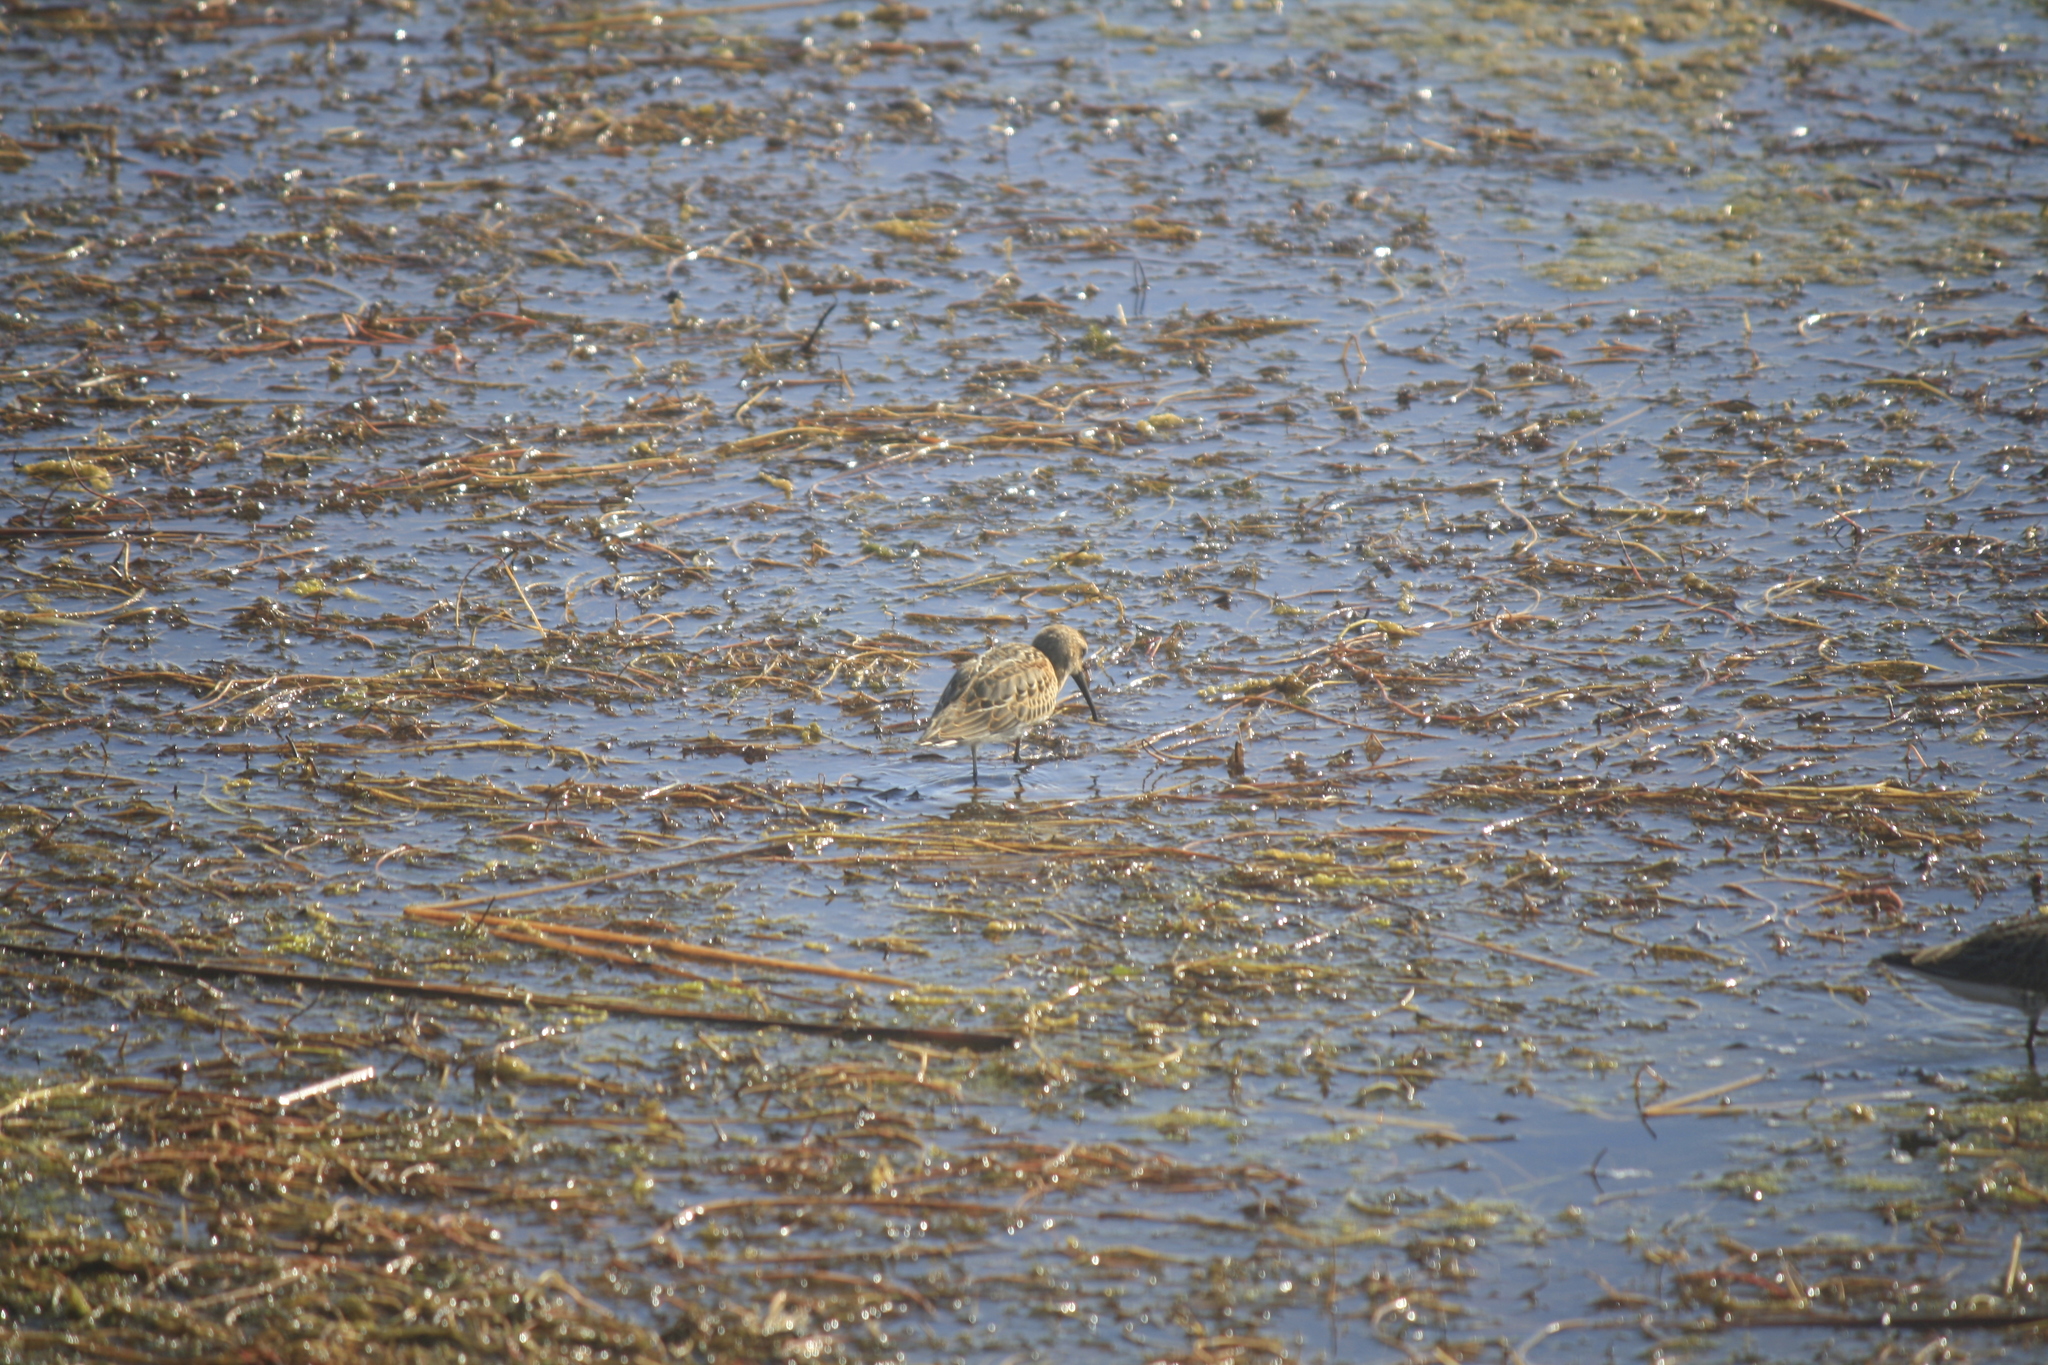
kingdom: Animalia
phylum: Chordata
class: Aves
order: Charadriiformes
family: Scolopacidae
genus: Calidris
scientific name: Calidris alpina
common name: Dunlin
